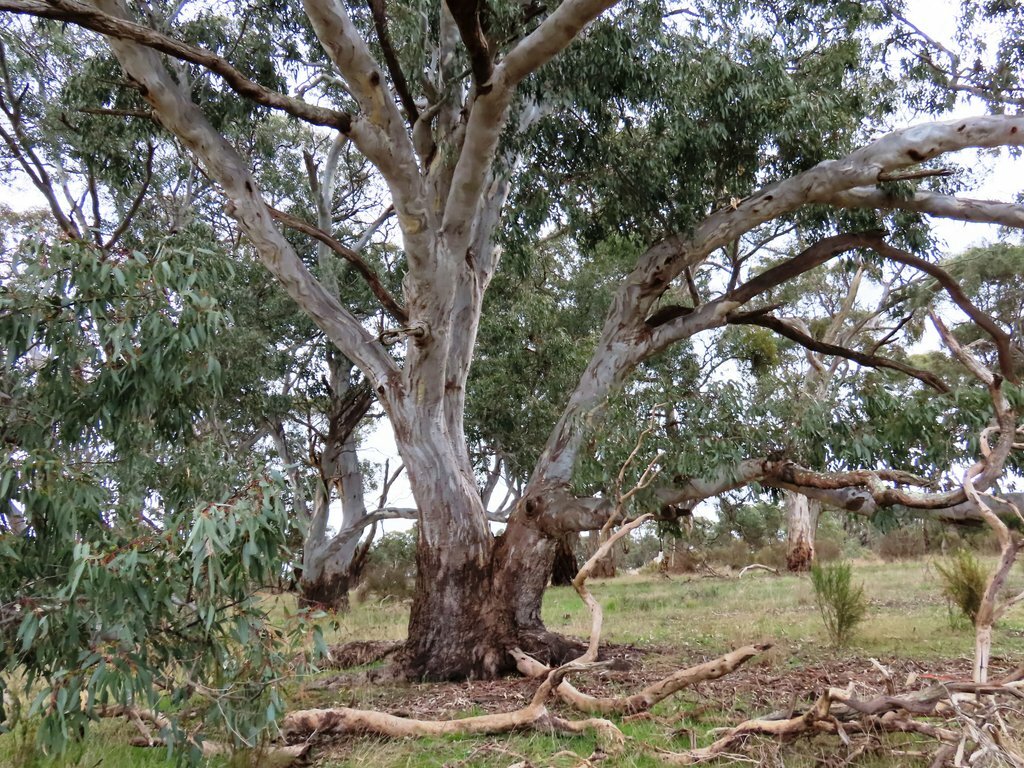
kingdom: Plantae
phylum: Tracheophyta
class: Magnoliopsida
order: Myrtales
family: Myrtaceae
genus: Eucalyptus
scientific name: Eucalyptus camaldulensis
